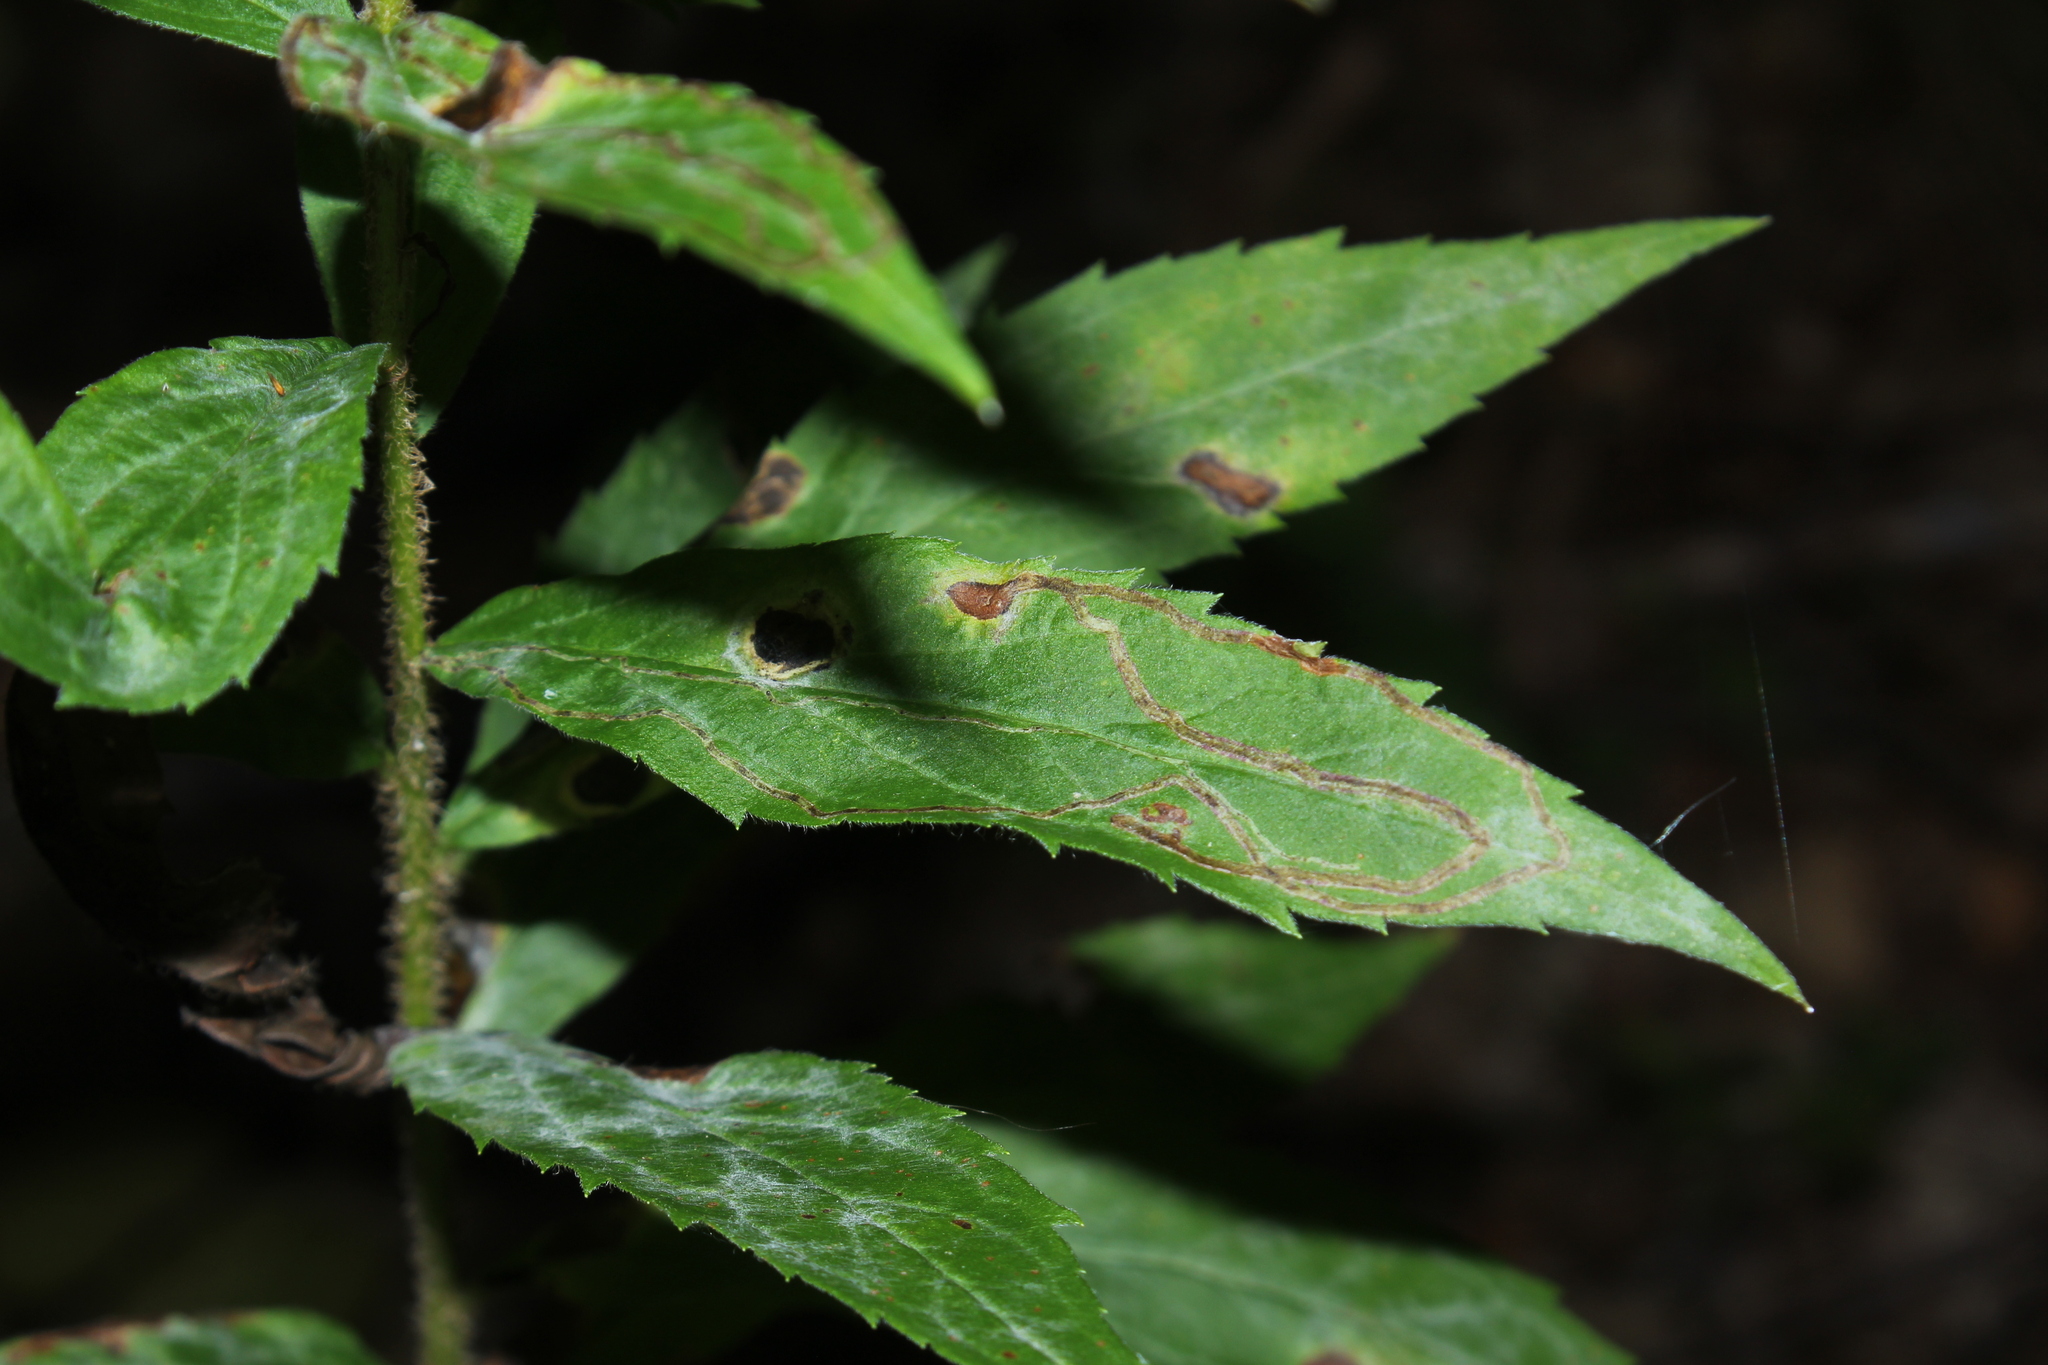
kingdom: Animalia
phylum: Arthropoda
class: Insecta
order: Diptera
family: Agromyzidae
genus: Ophiomyia
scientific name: Ophiomyia maura
